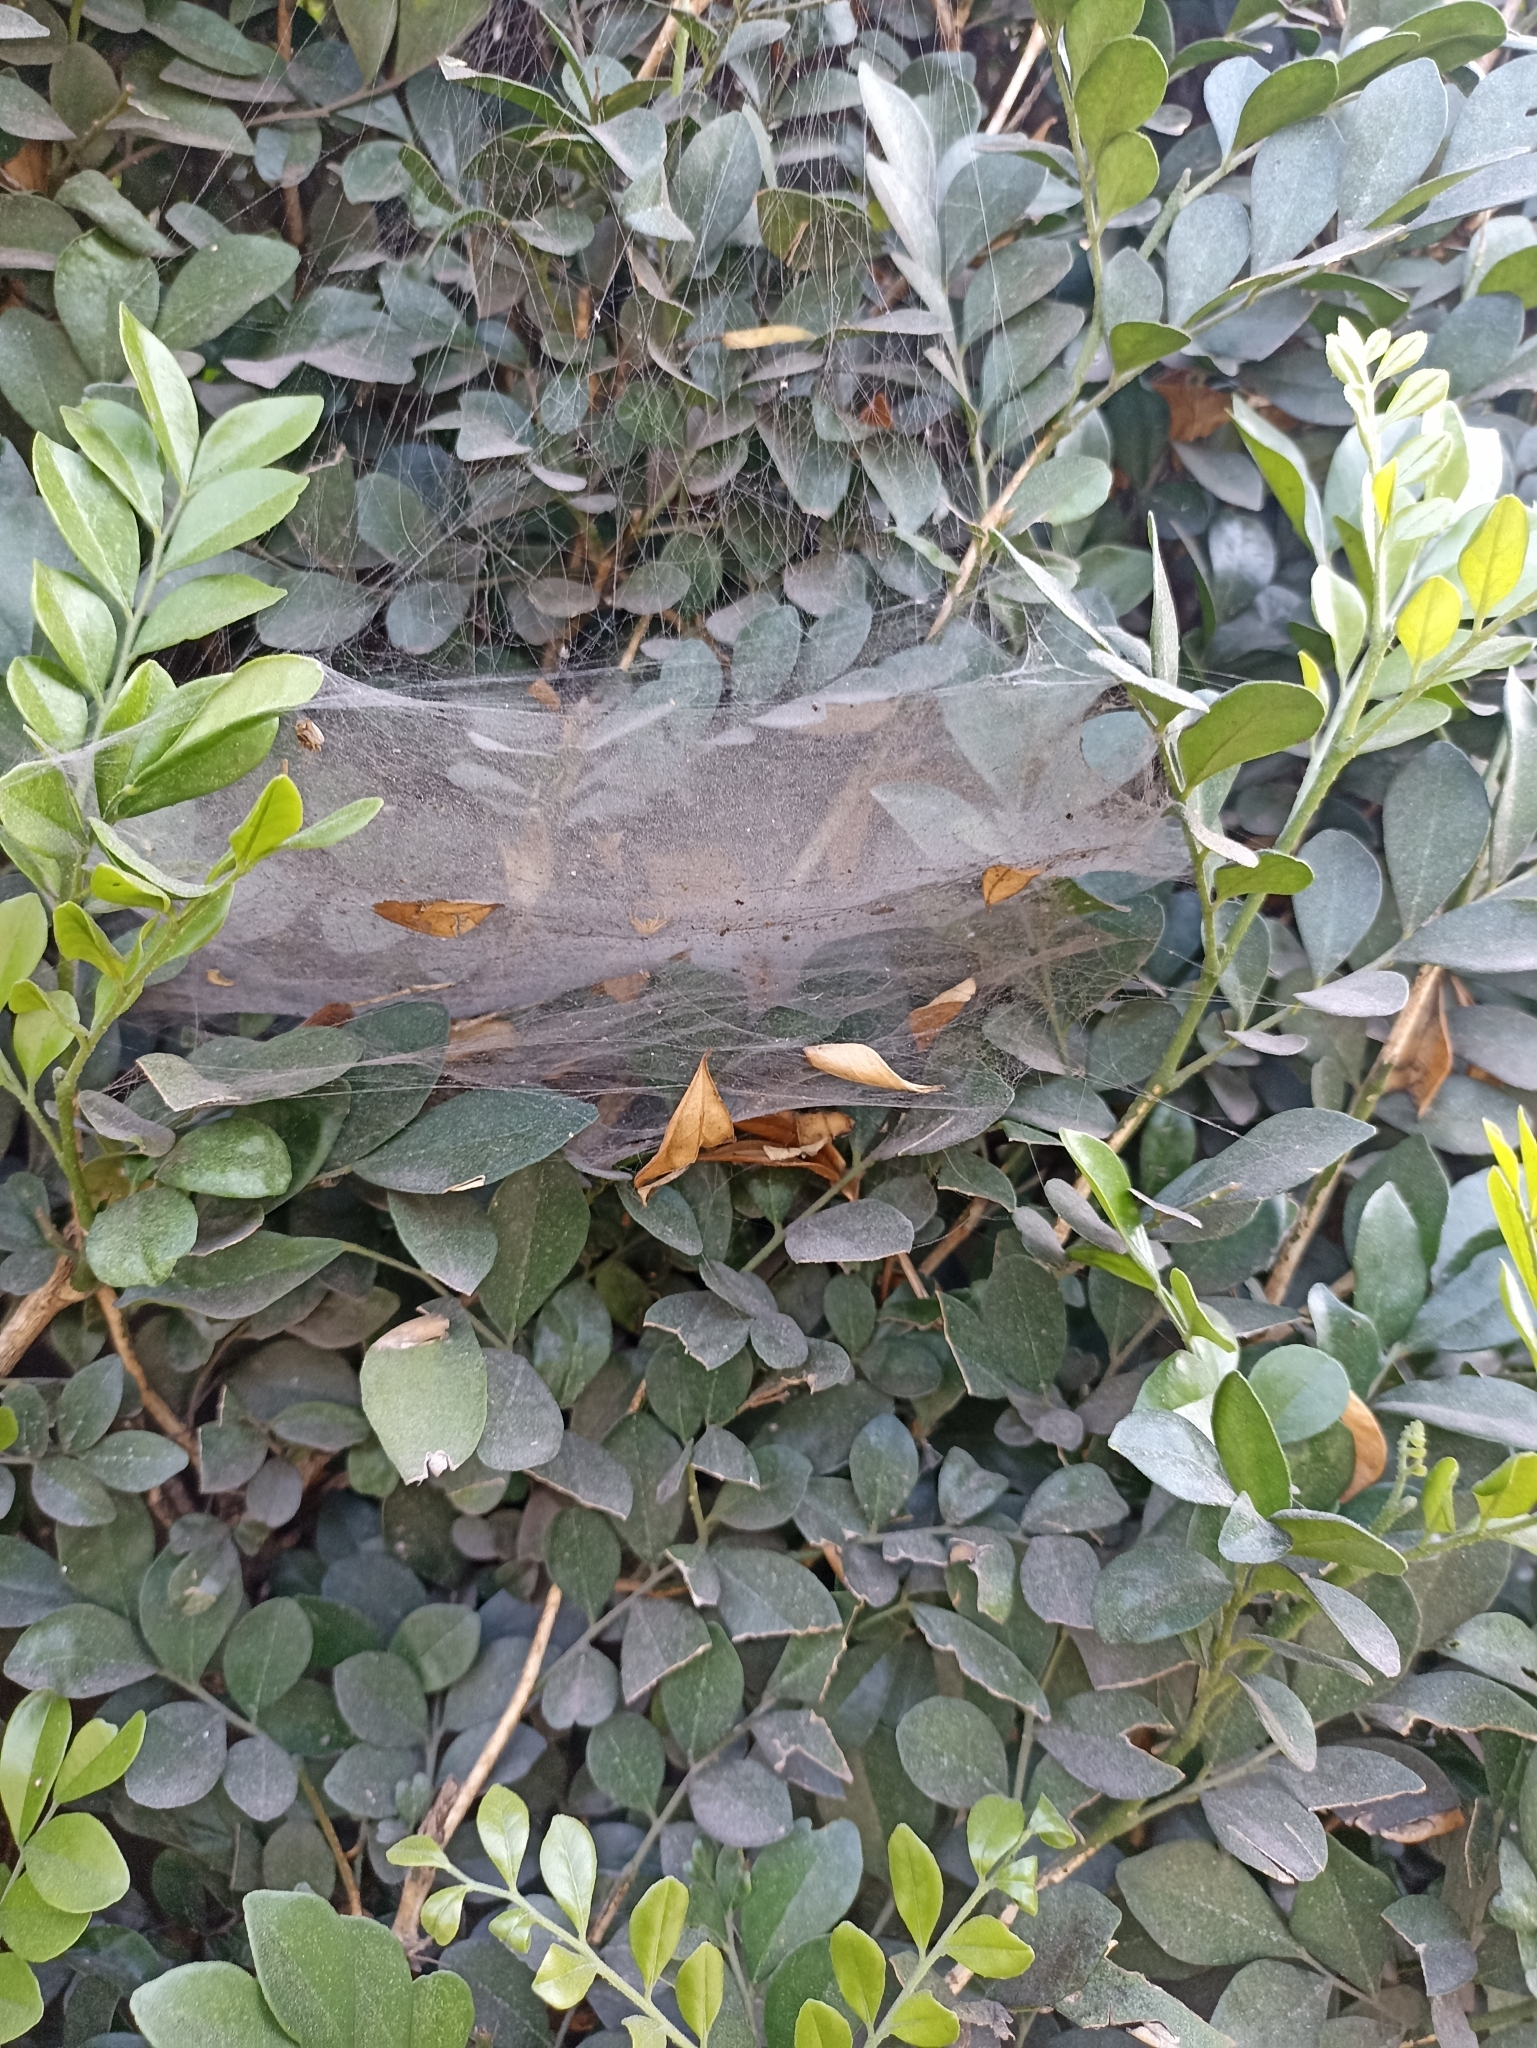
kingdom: Animalia
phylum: Arthropoda
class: Arachnida
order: Araneae
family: Lycosidae
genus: Aglaoctenus
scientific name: Aglaoctenus lagotis
